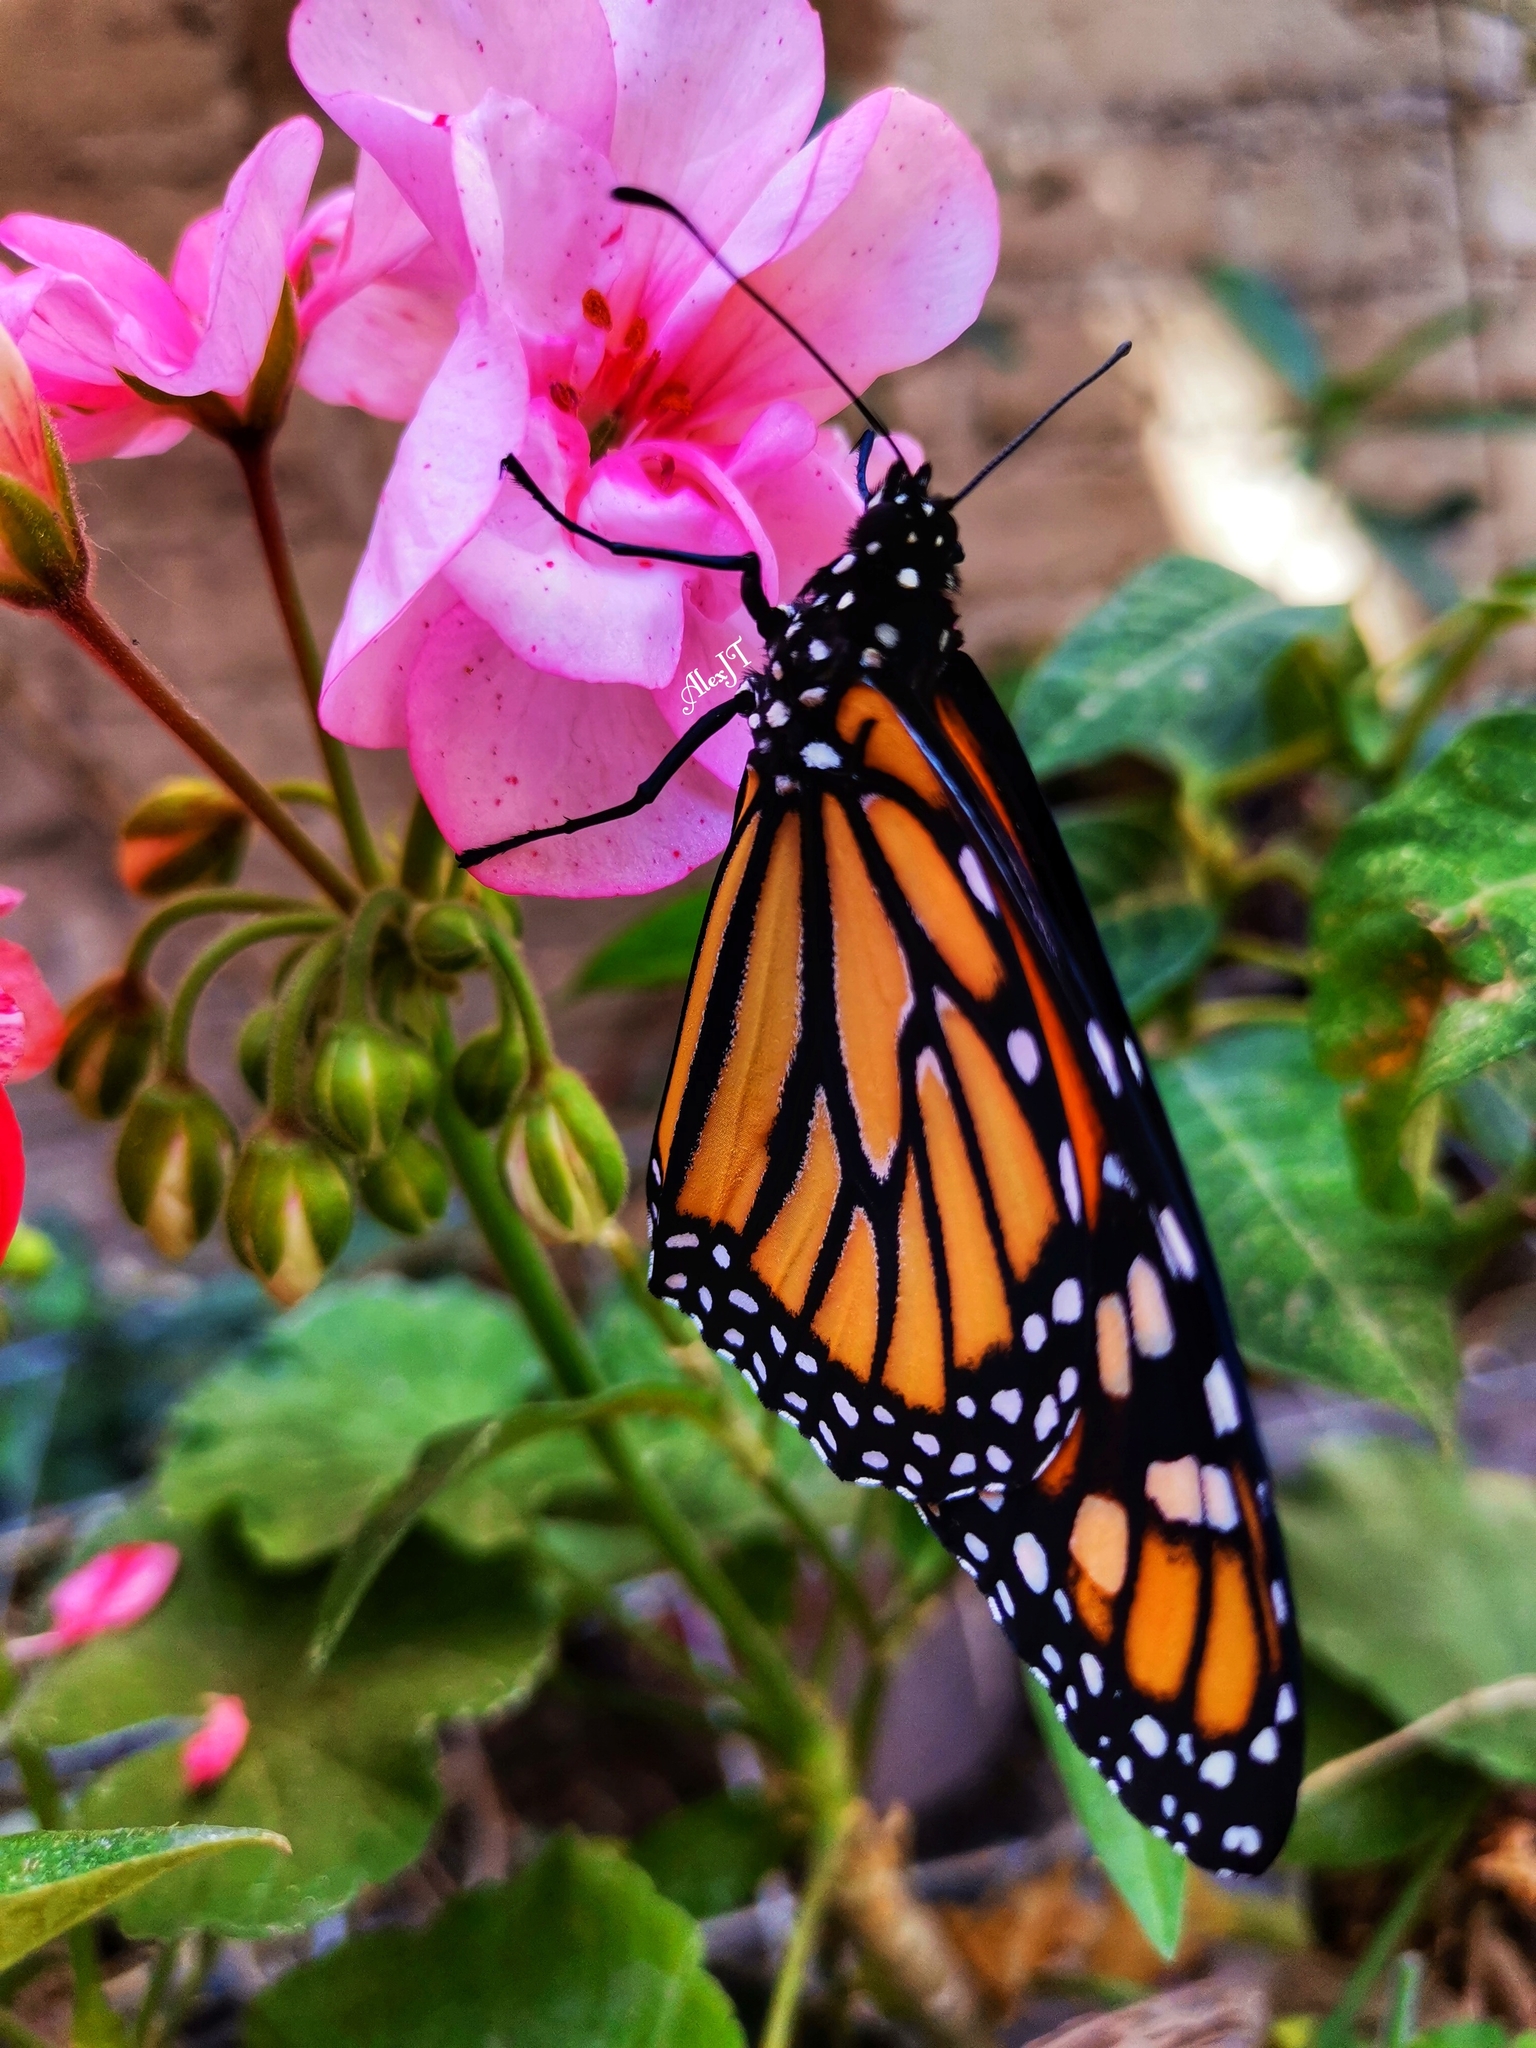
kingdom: Animalia
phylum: Arthropoda
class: Insecta
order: Lepidoptera
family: Nymphalidae
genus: Danaus
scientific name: Danaus plexippus
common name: Monarch
